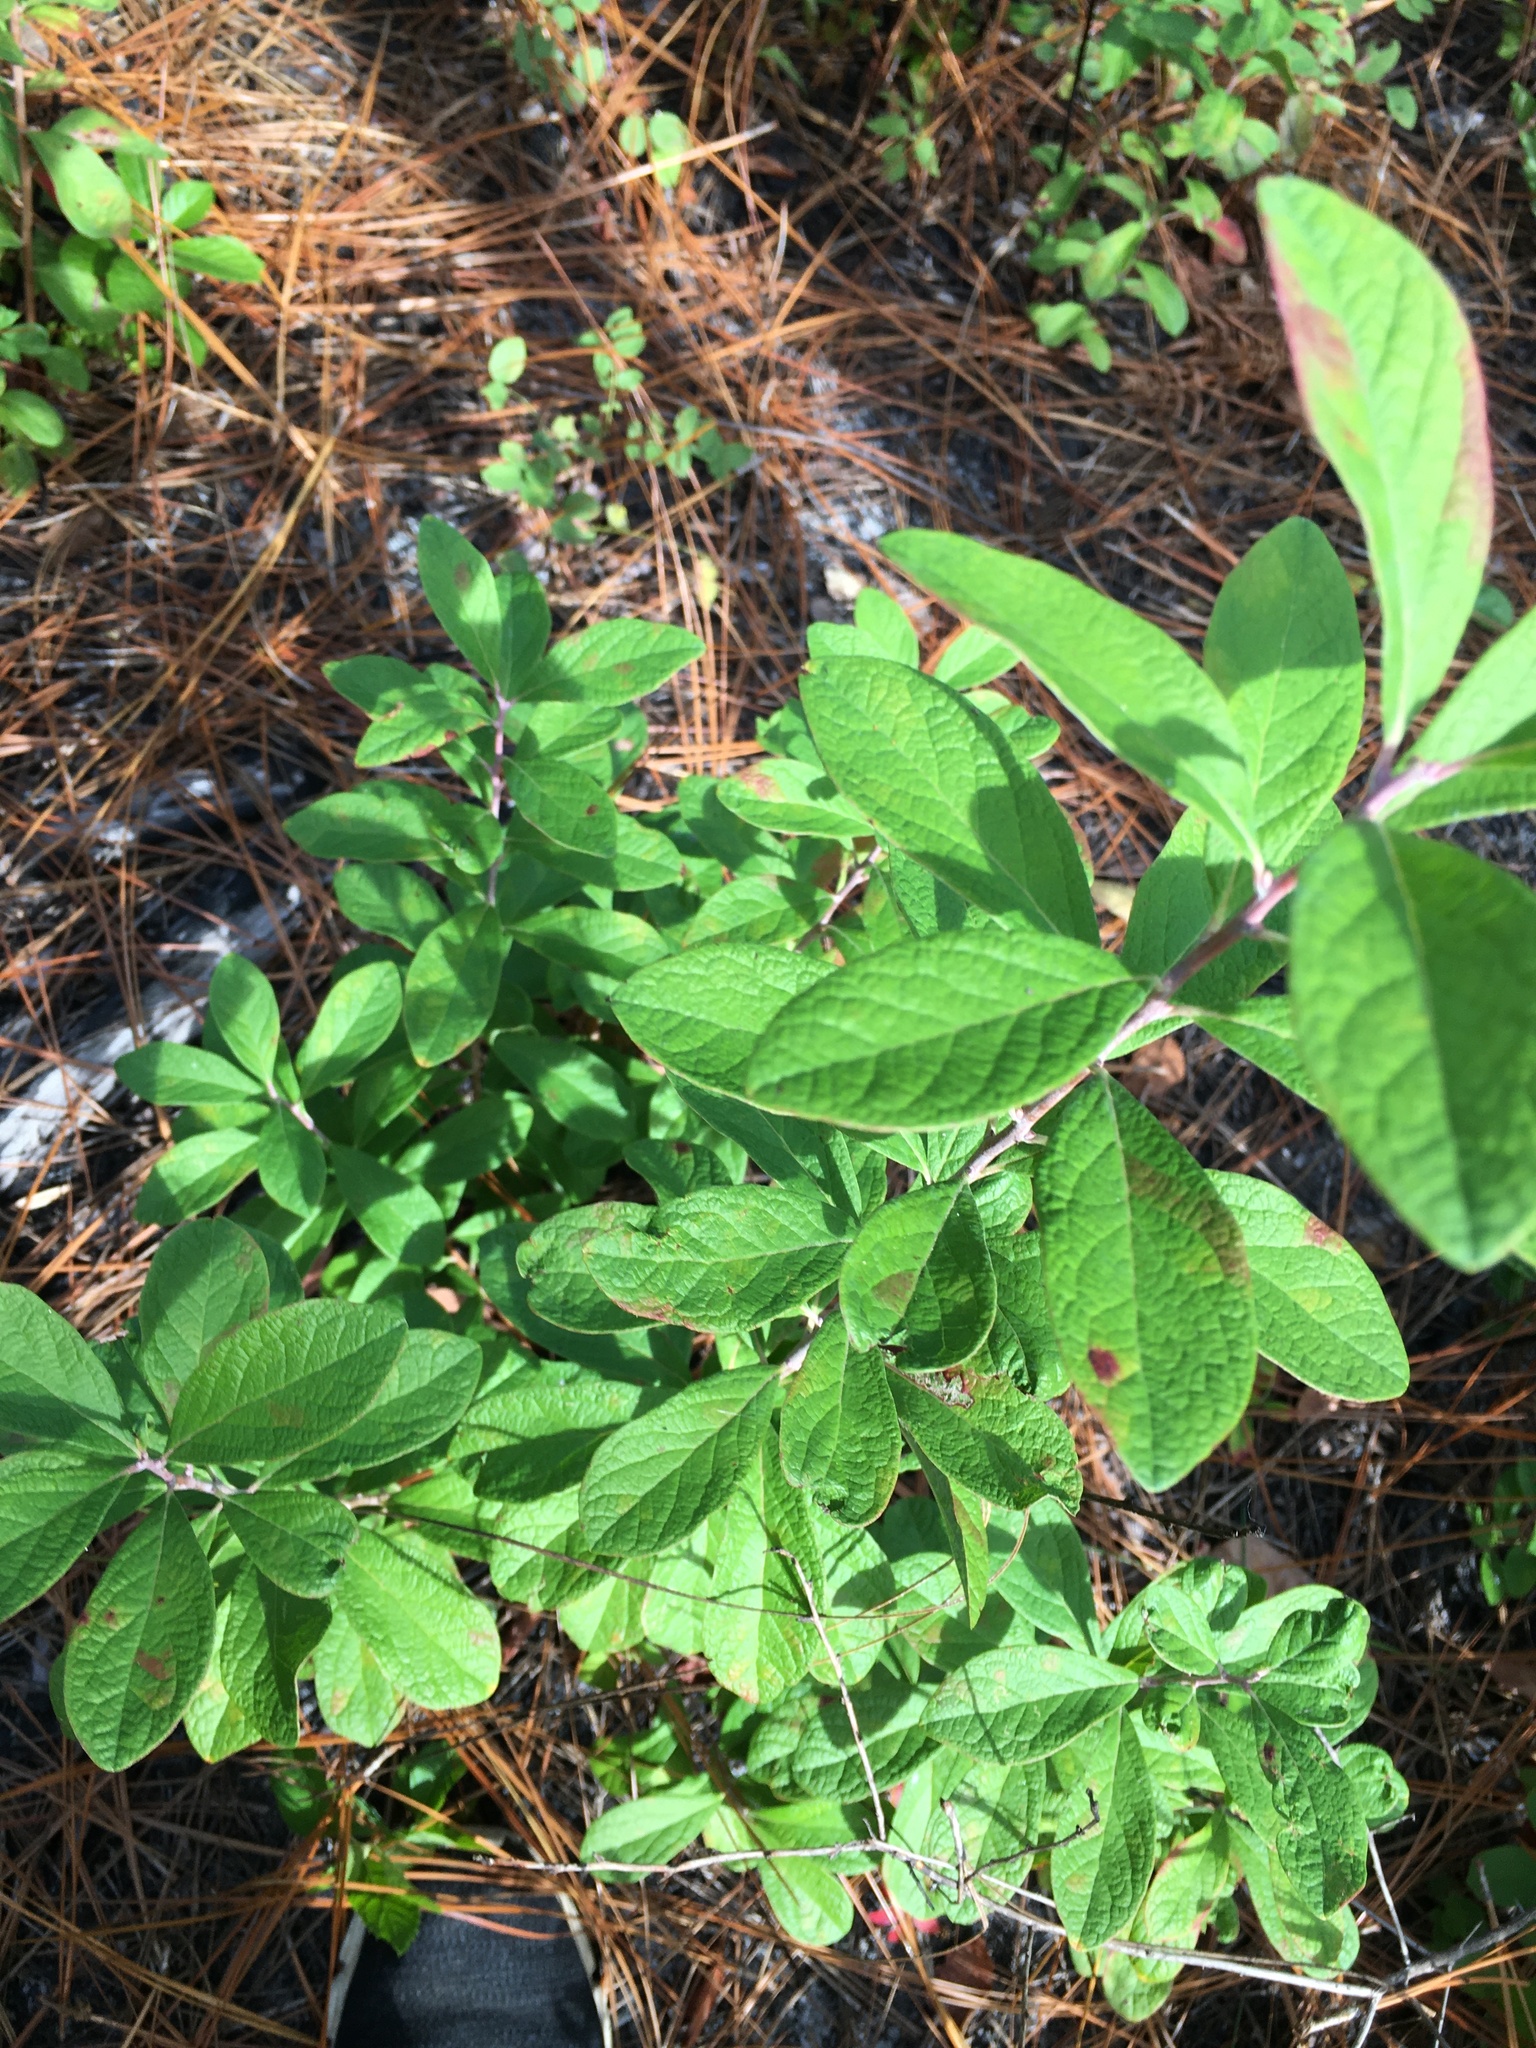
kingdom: Plantae
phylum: Tracheophyta
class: Magnoliopsida
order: Ericales
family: Ericaceae
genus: Gaylussacia
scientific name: Gaylussacia frondosa
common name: Dangleberry
